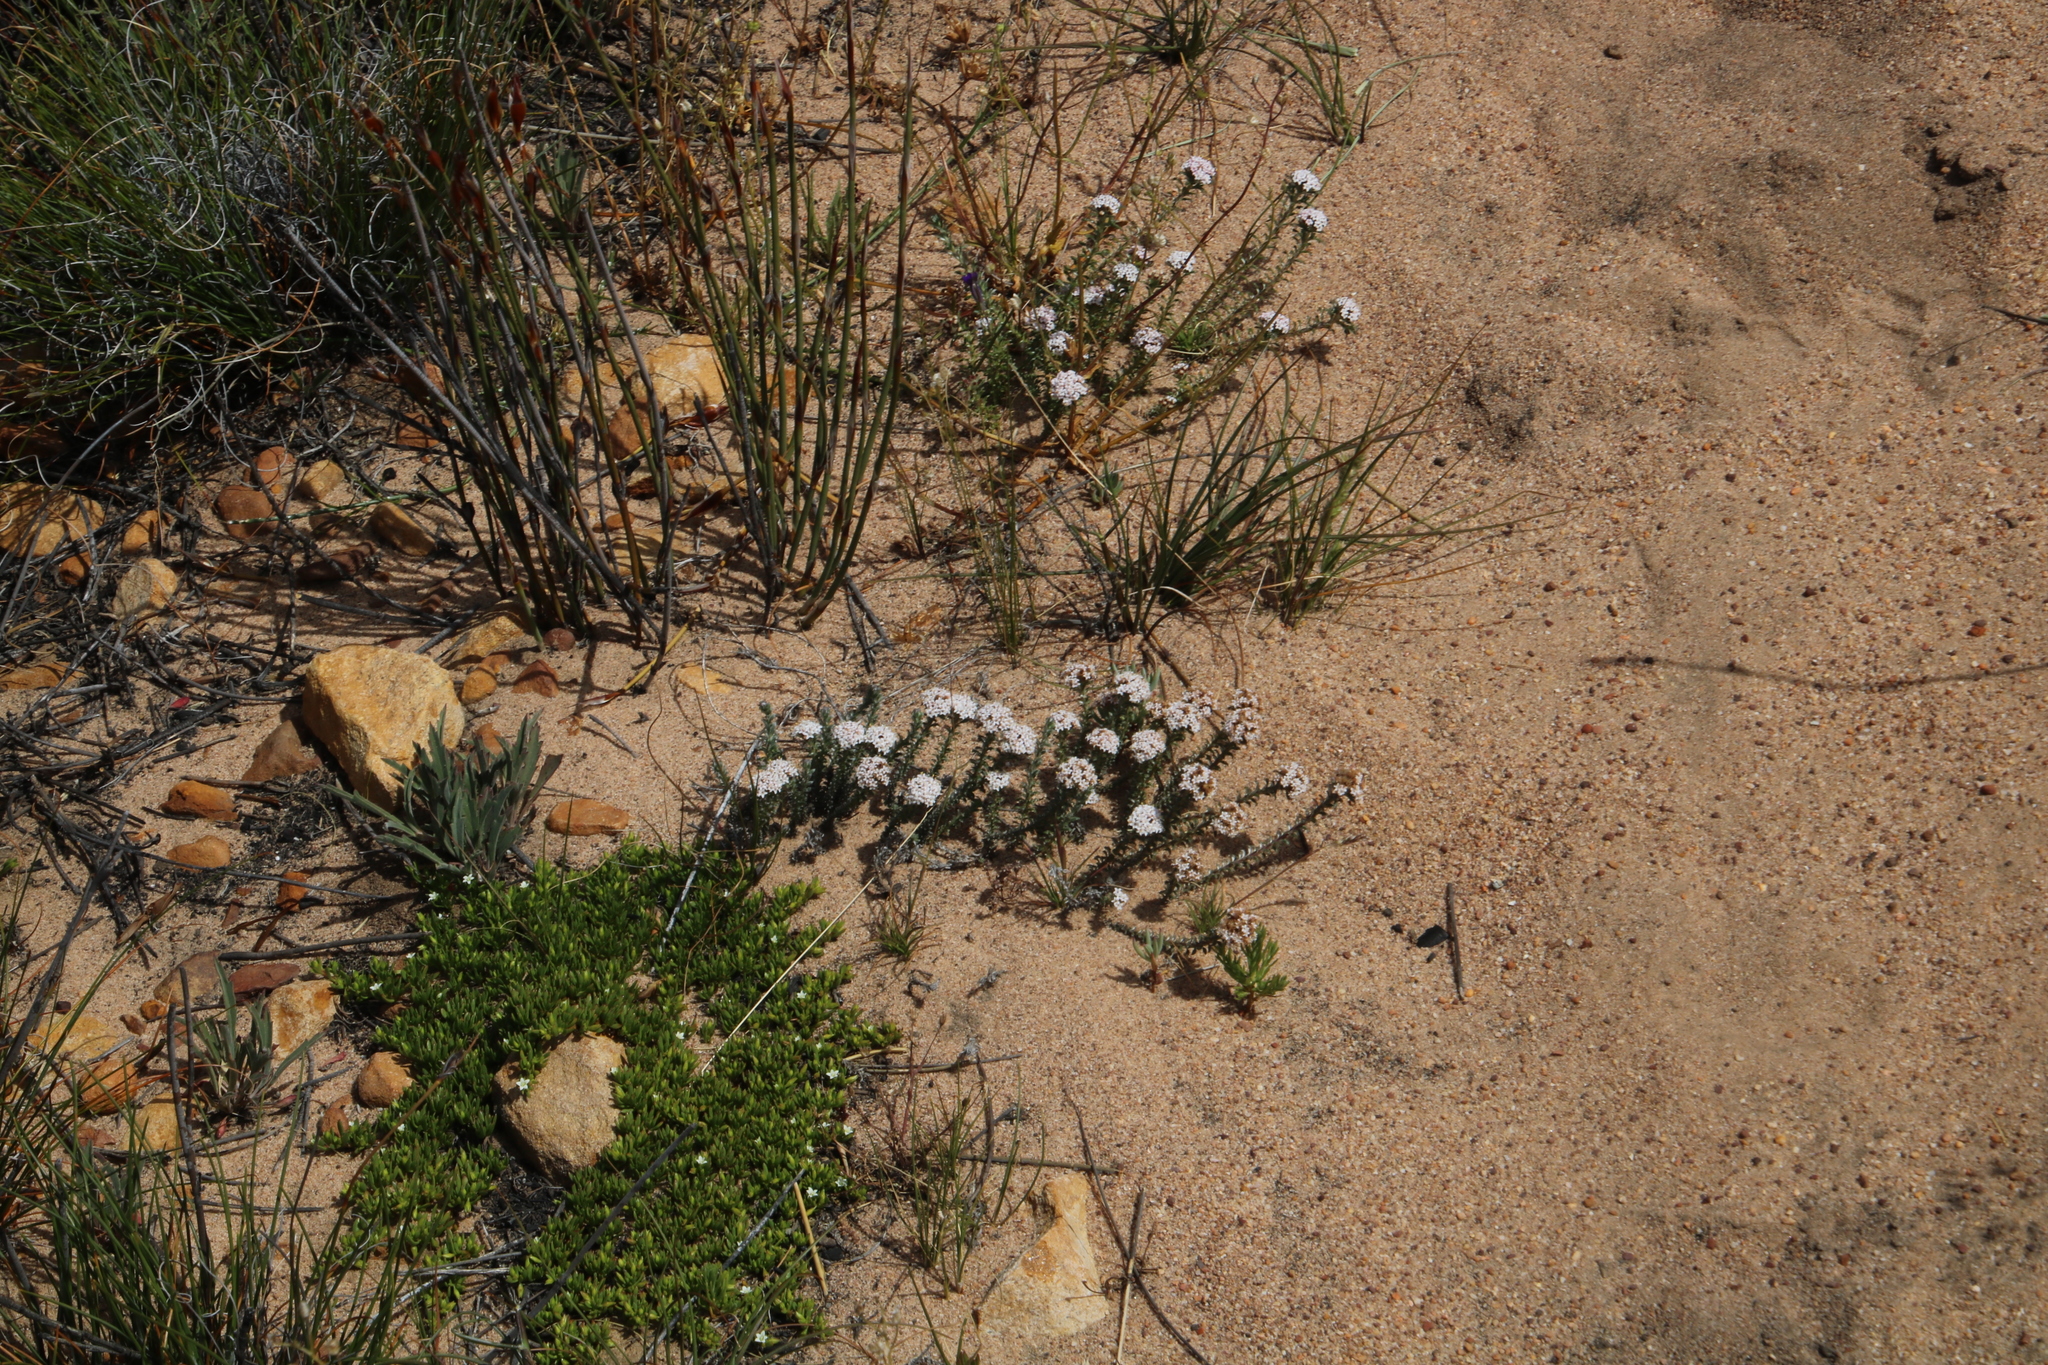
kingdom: Plantae
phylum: Tracheophyta
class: Magnoliopsida
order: Asterales
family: Asteraceae
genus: Elytropappus
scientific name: Elytropappus hispidus
